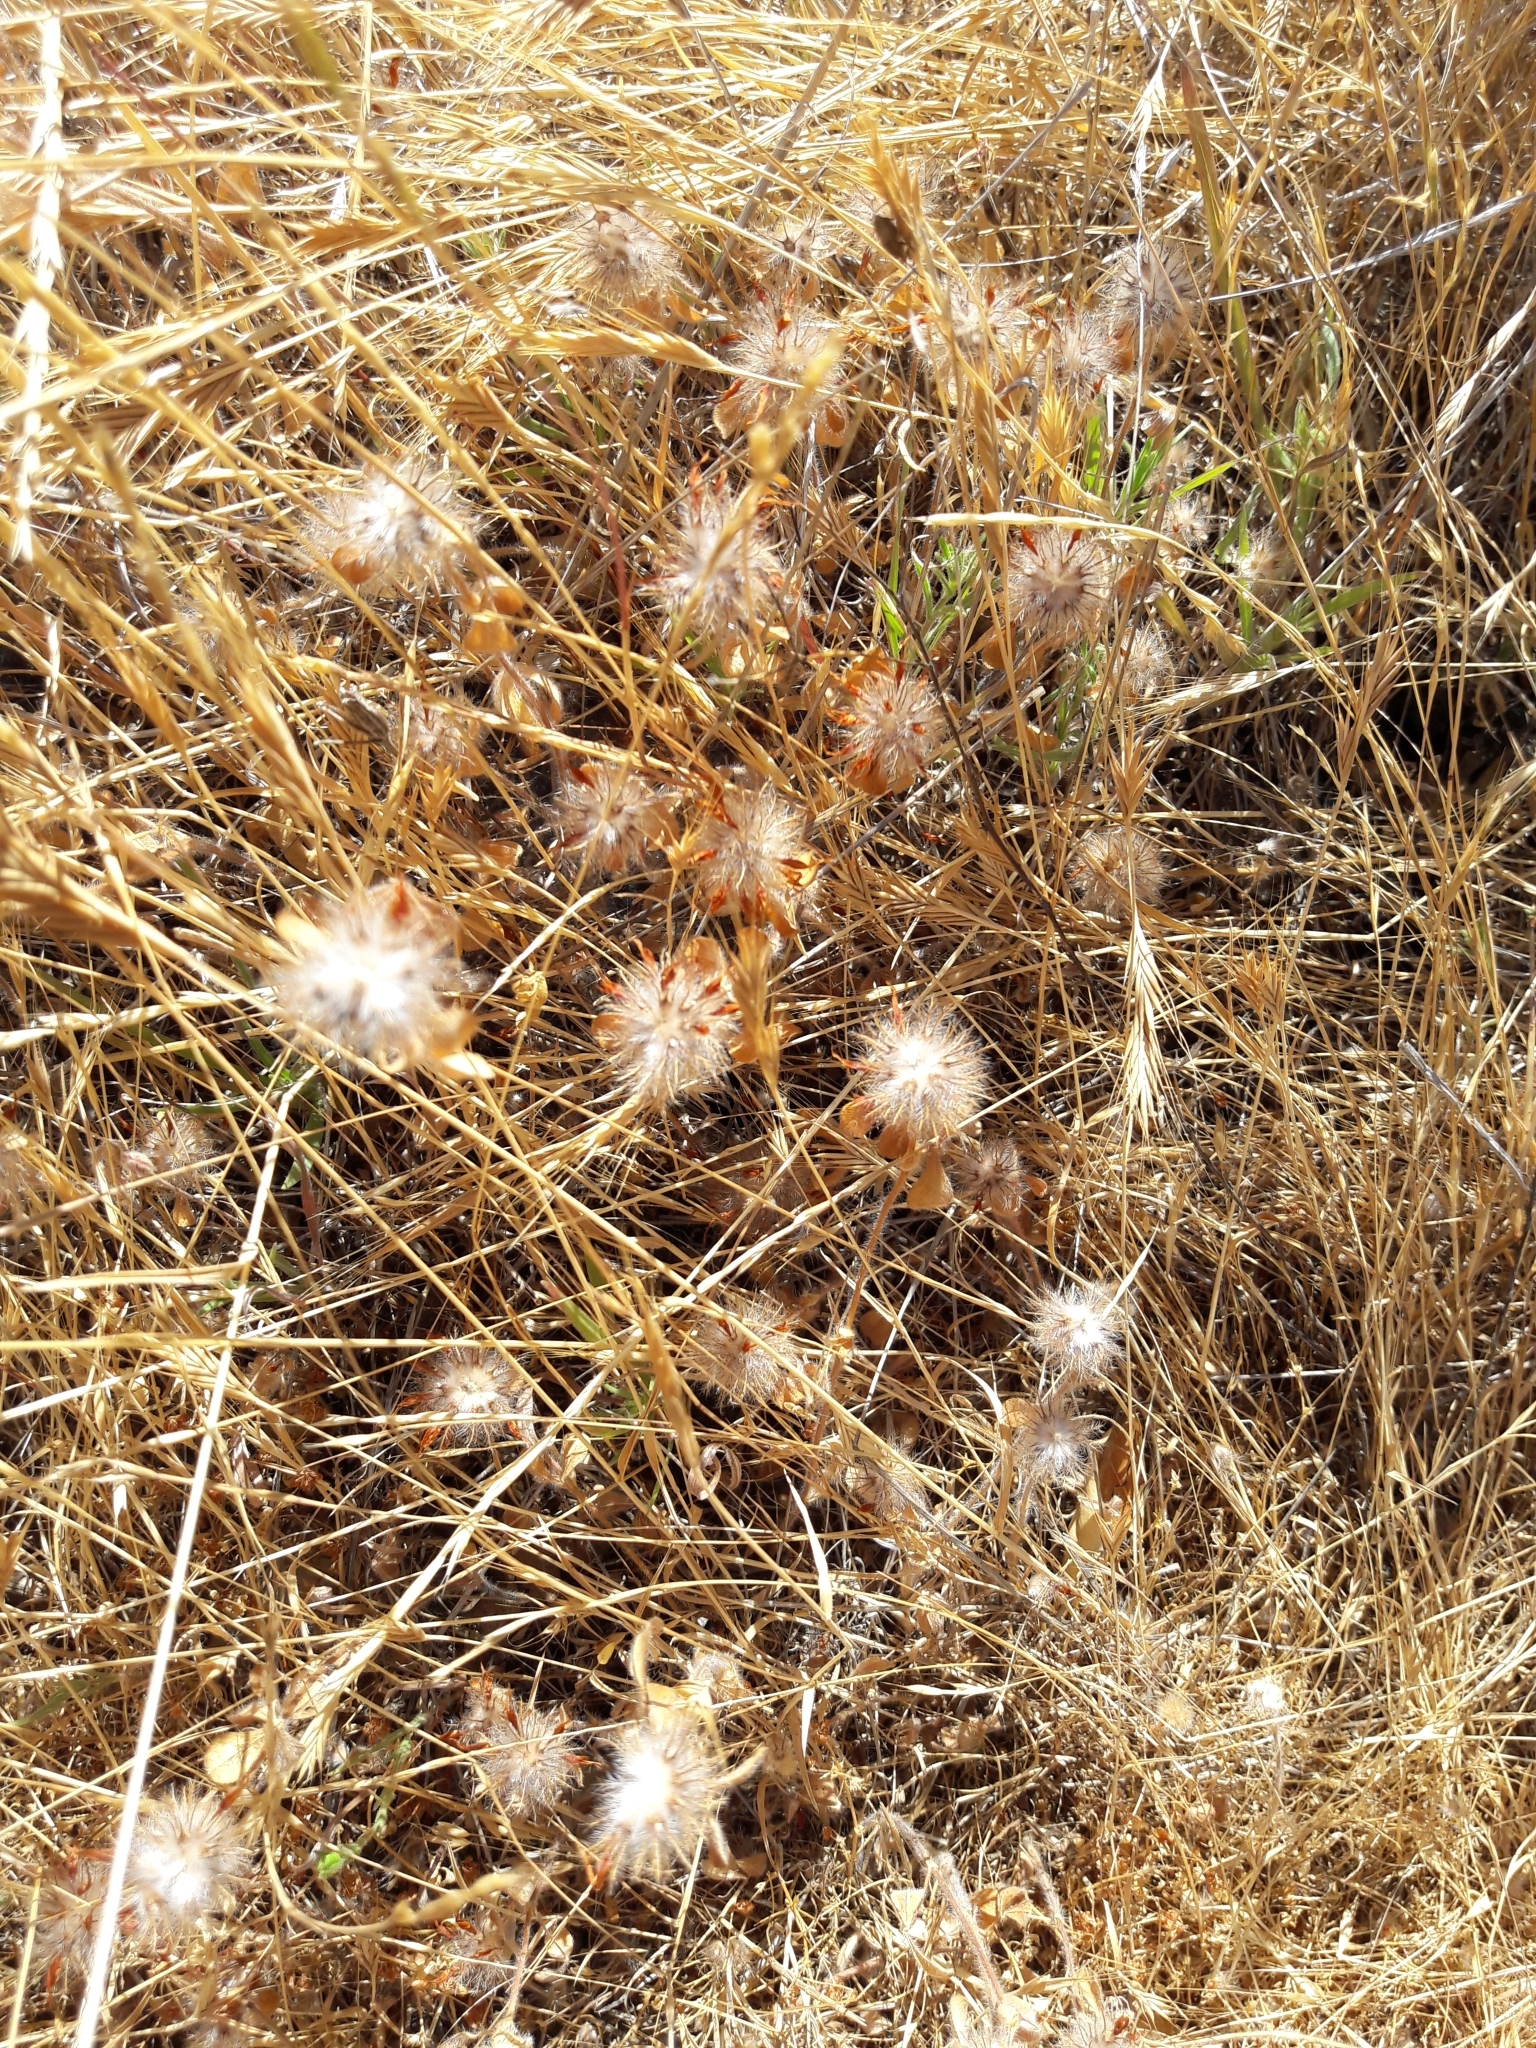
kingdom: Plantae
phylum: Tracheophyta
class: Magnoliopsida
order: Fabales
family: Fabaceae
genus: Trifolium
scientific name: Trifolium hirtum
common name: Rose clover
